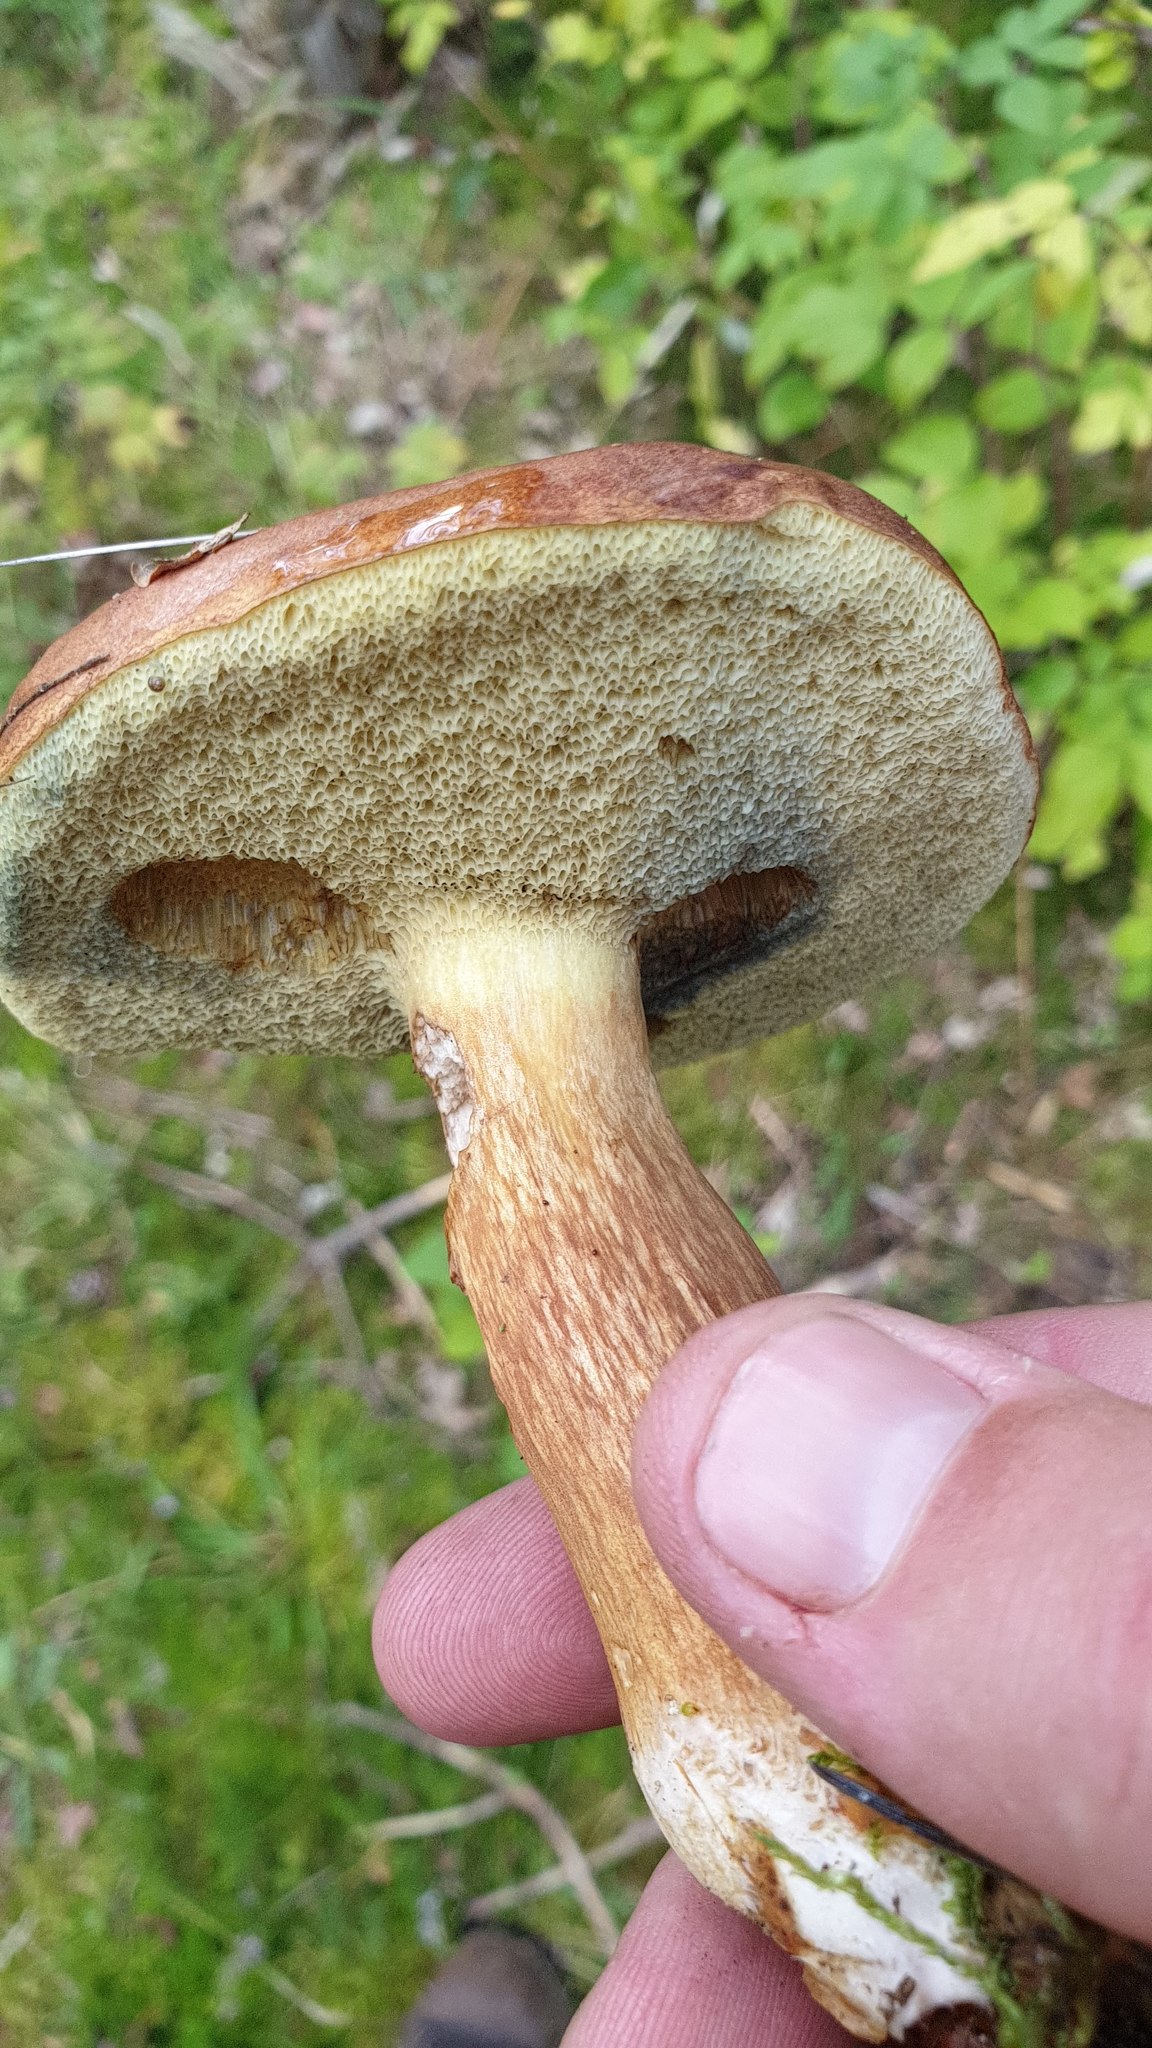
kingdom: Fungi
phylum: Basidiomycota
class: Agaricomycetes
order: Boletales
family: Boletaceae
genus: Imleria
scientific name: Imleria badia
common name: Bay bolete
